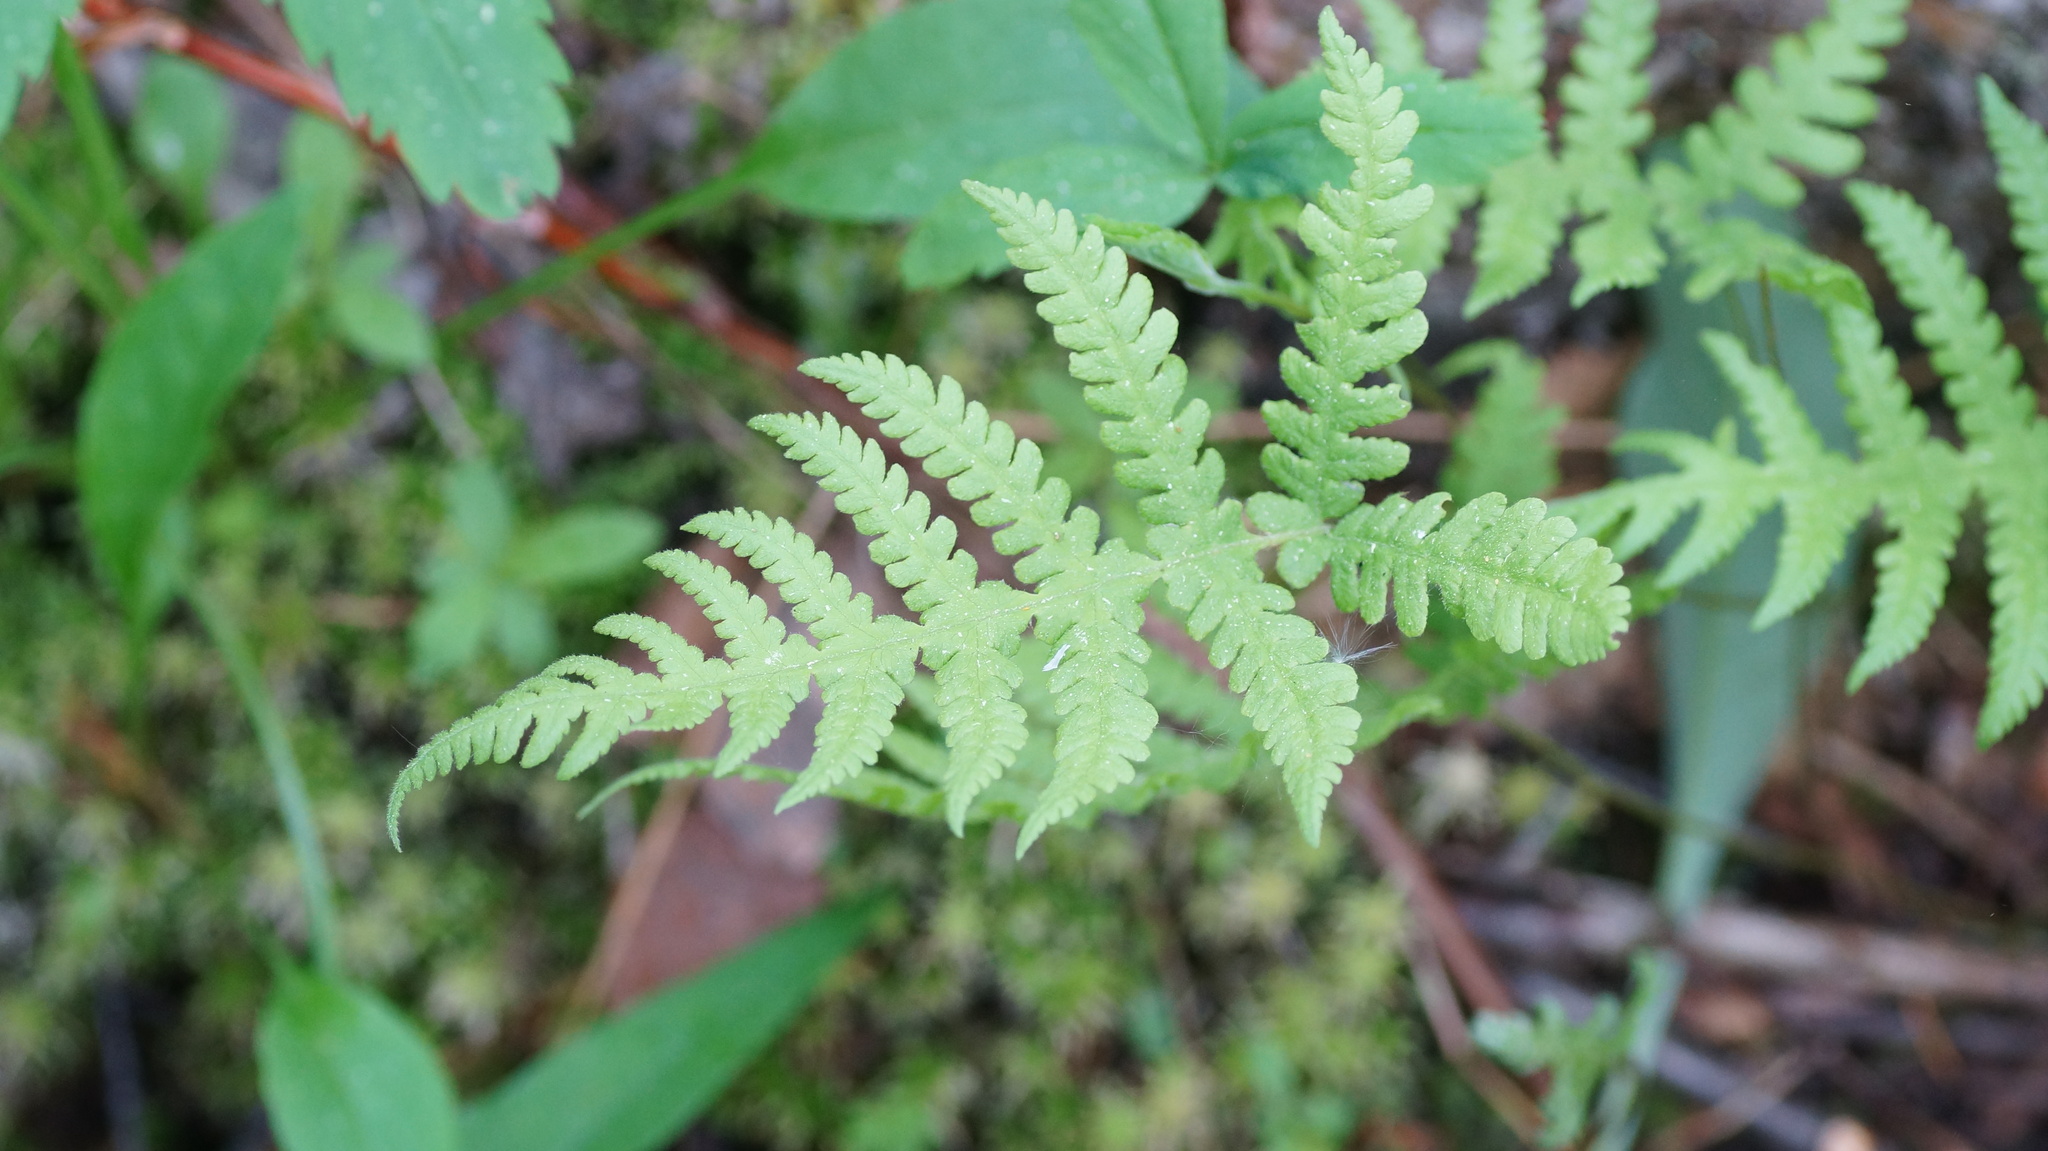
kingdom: Plantae
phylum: Tracheophyta
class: Polypodiopsida
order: Polypodiales
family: Thelypteridaceae
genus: Phegopteris
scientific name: Phegopteris connectilis
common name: Beech fern
